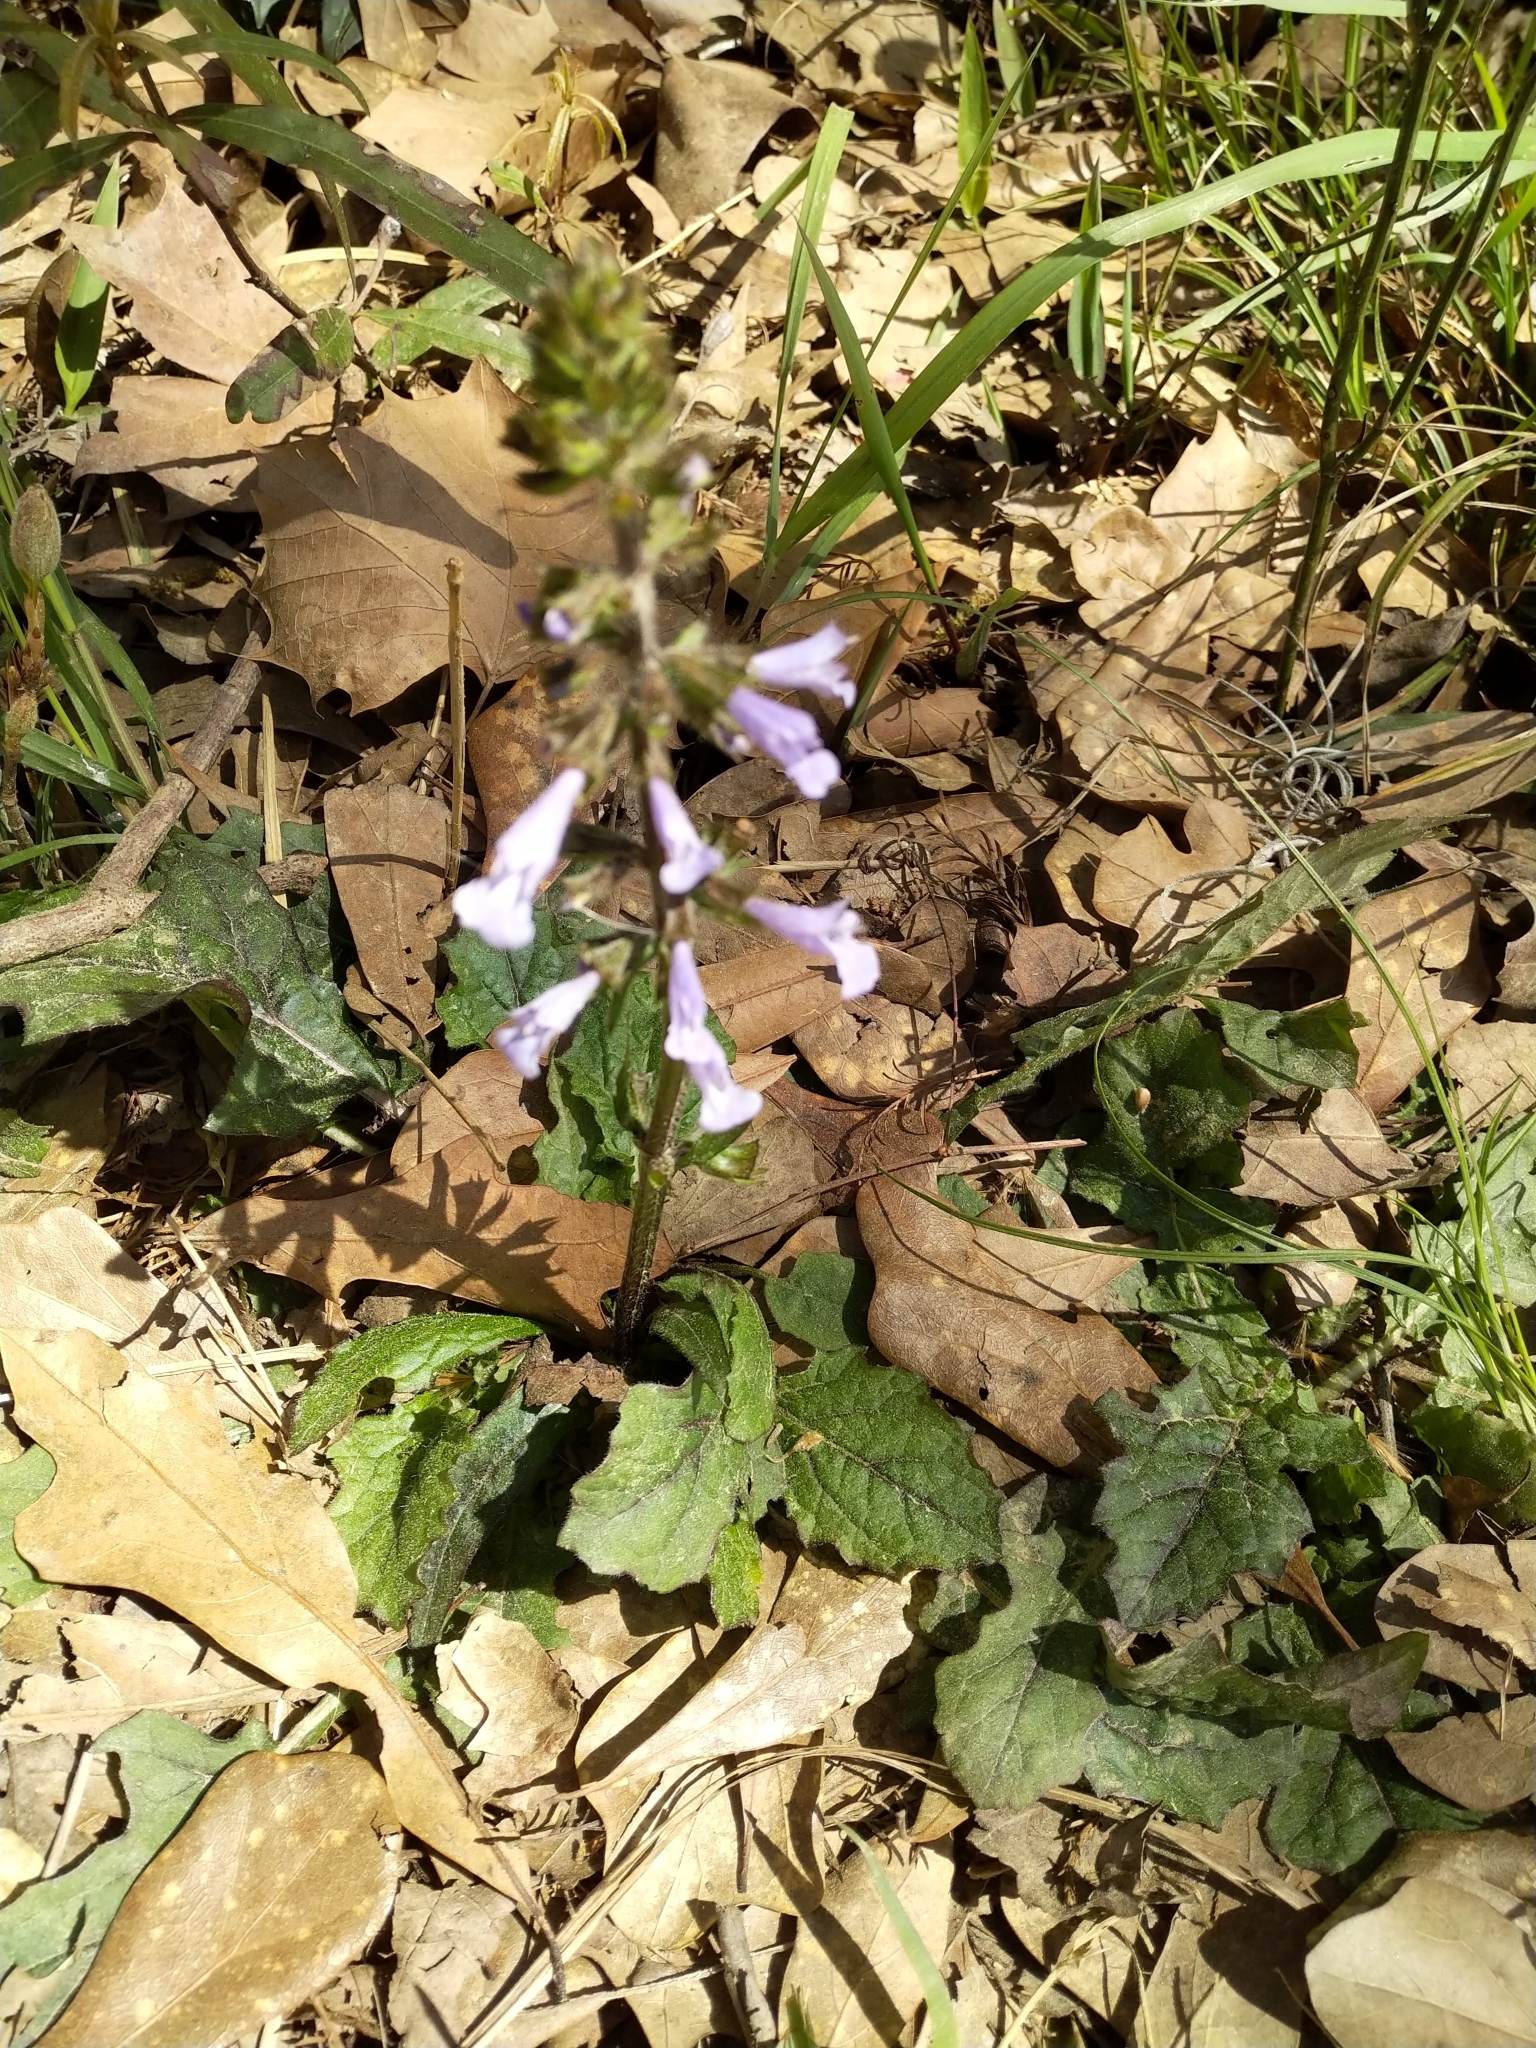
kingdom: Plantae
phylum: Tracheophyta
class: Magnoliopsida
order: Lamiales
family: Lamiaceae
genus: Salvia
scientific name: Salvia lyrata
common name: Cancerweed
